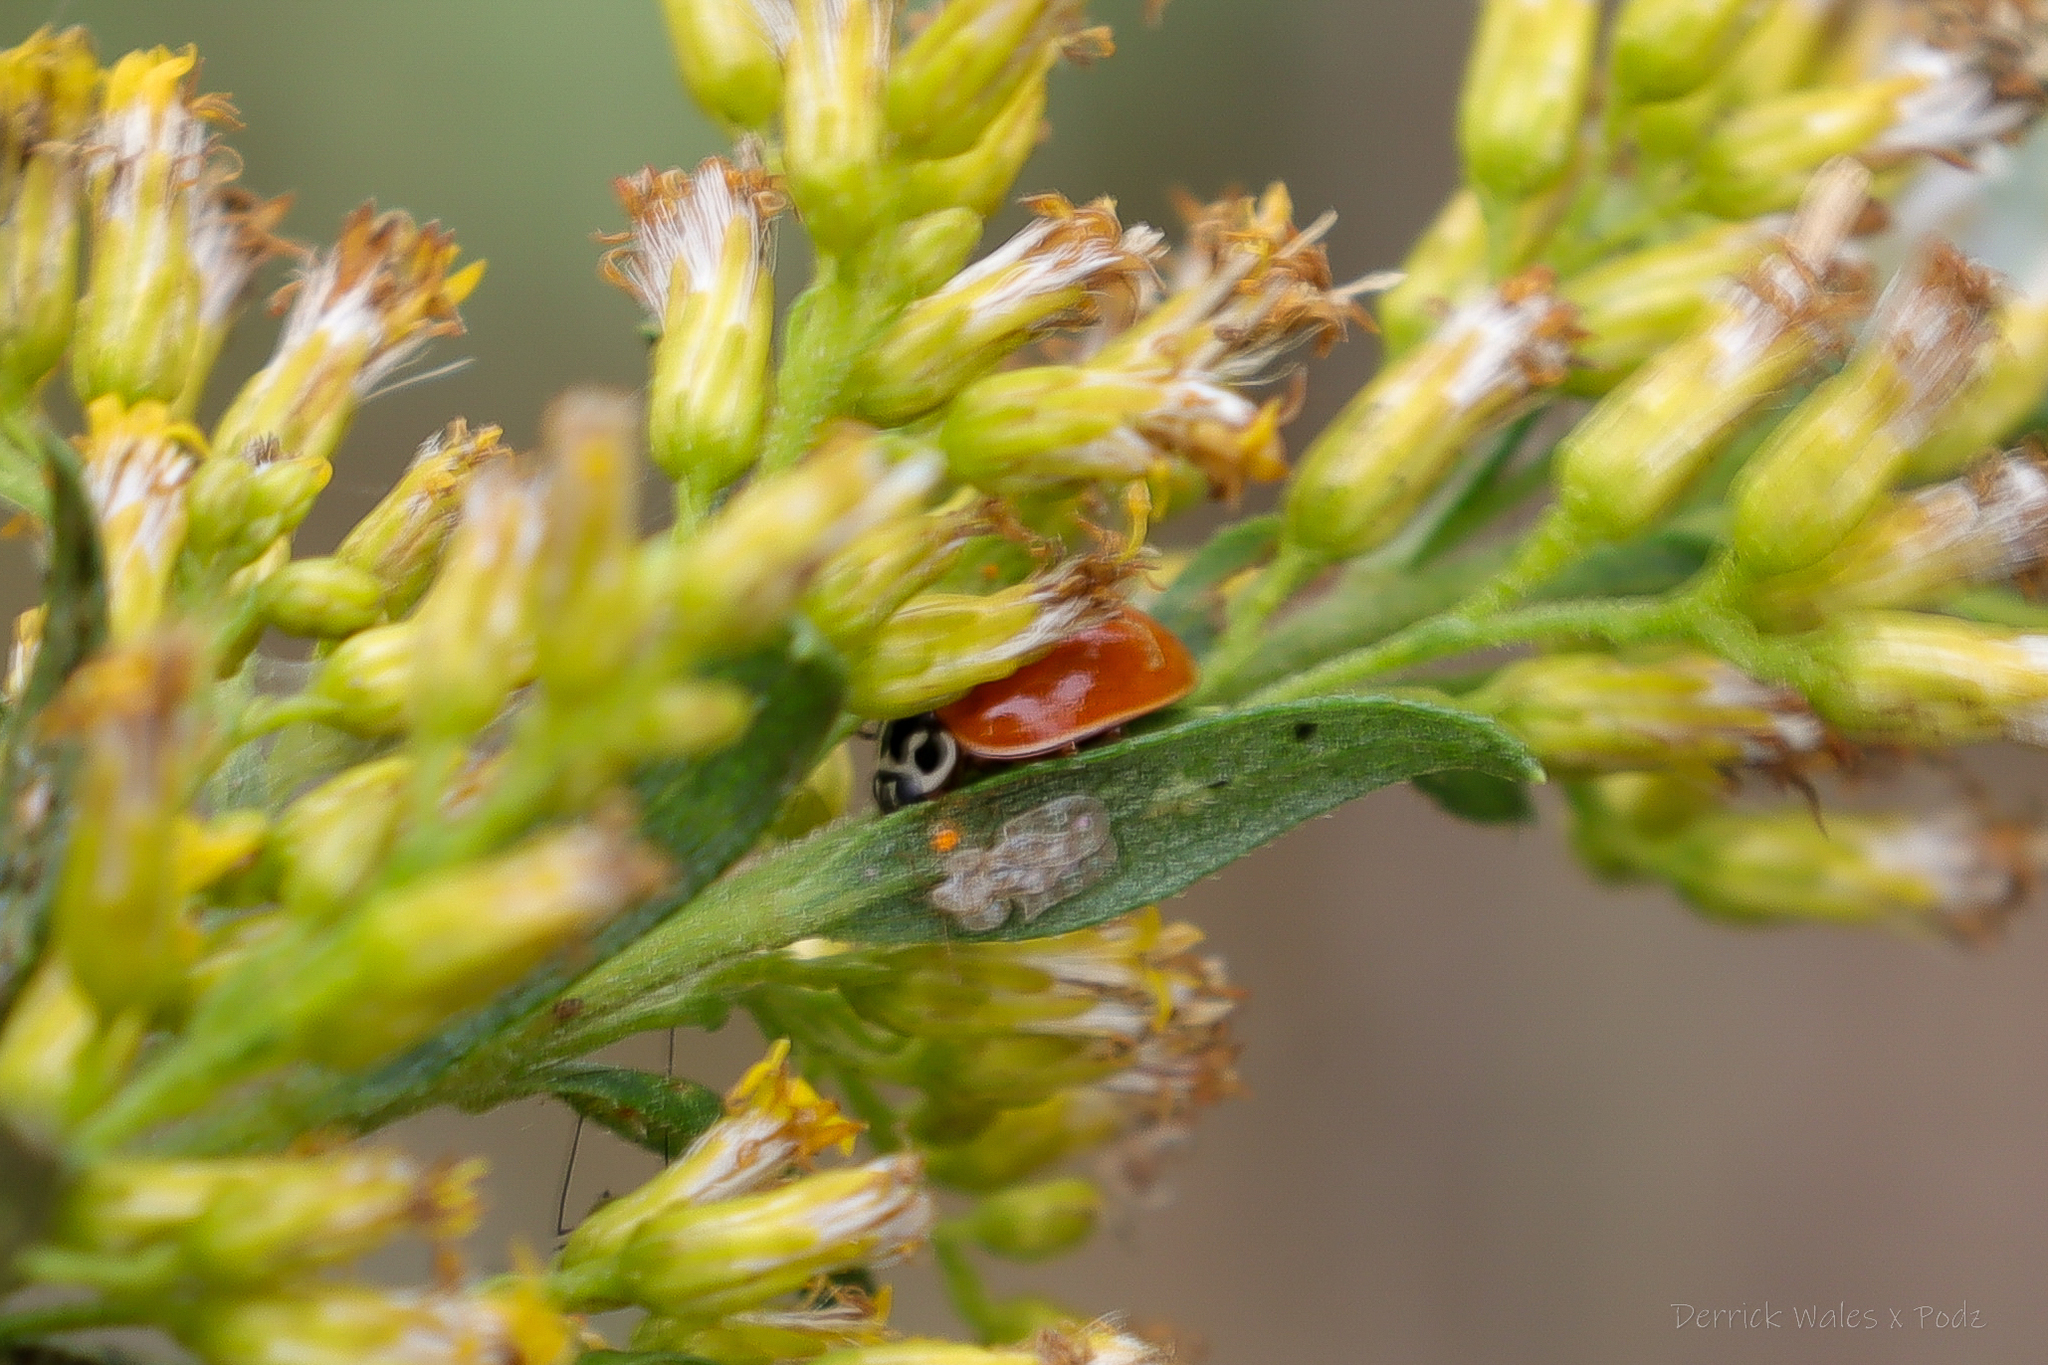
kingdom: Animalia
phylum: Arthropoda
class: Insecta
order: Coleoptera
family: Coccinellidae
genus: Cycloneda
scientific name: Cycloneda munda
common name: Polished lady beetle
